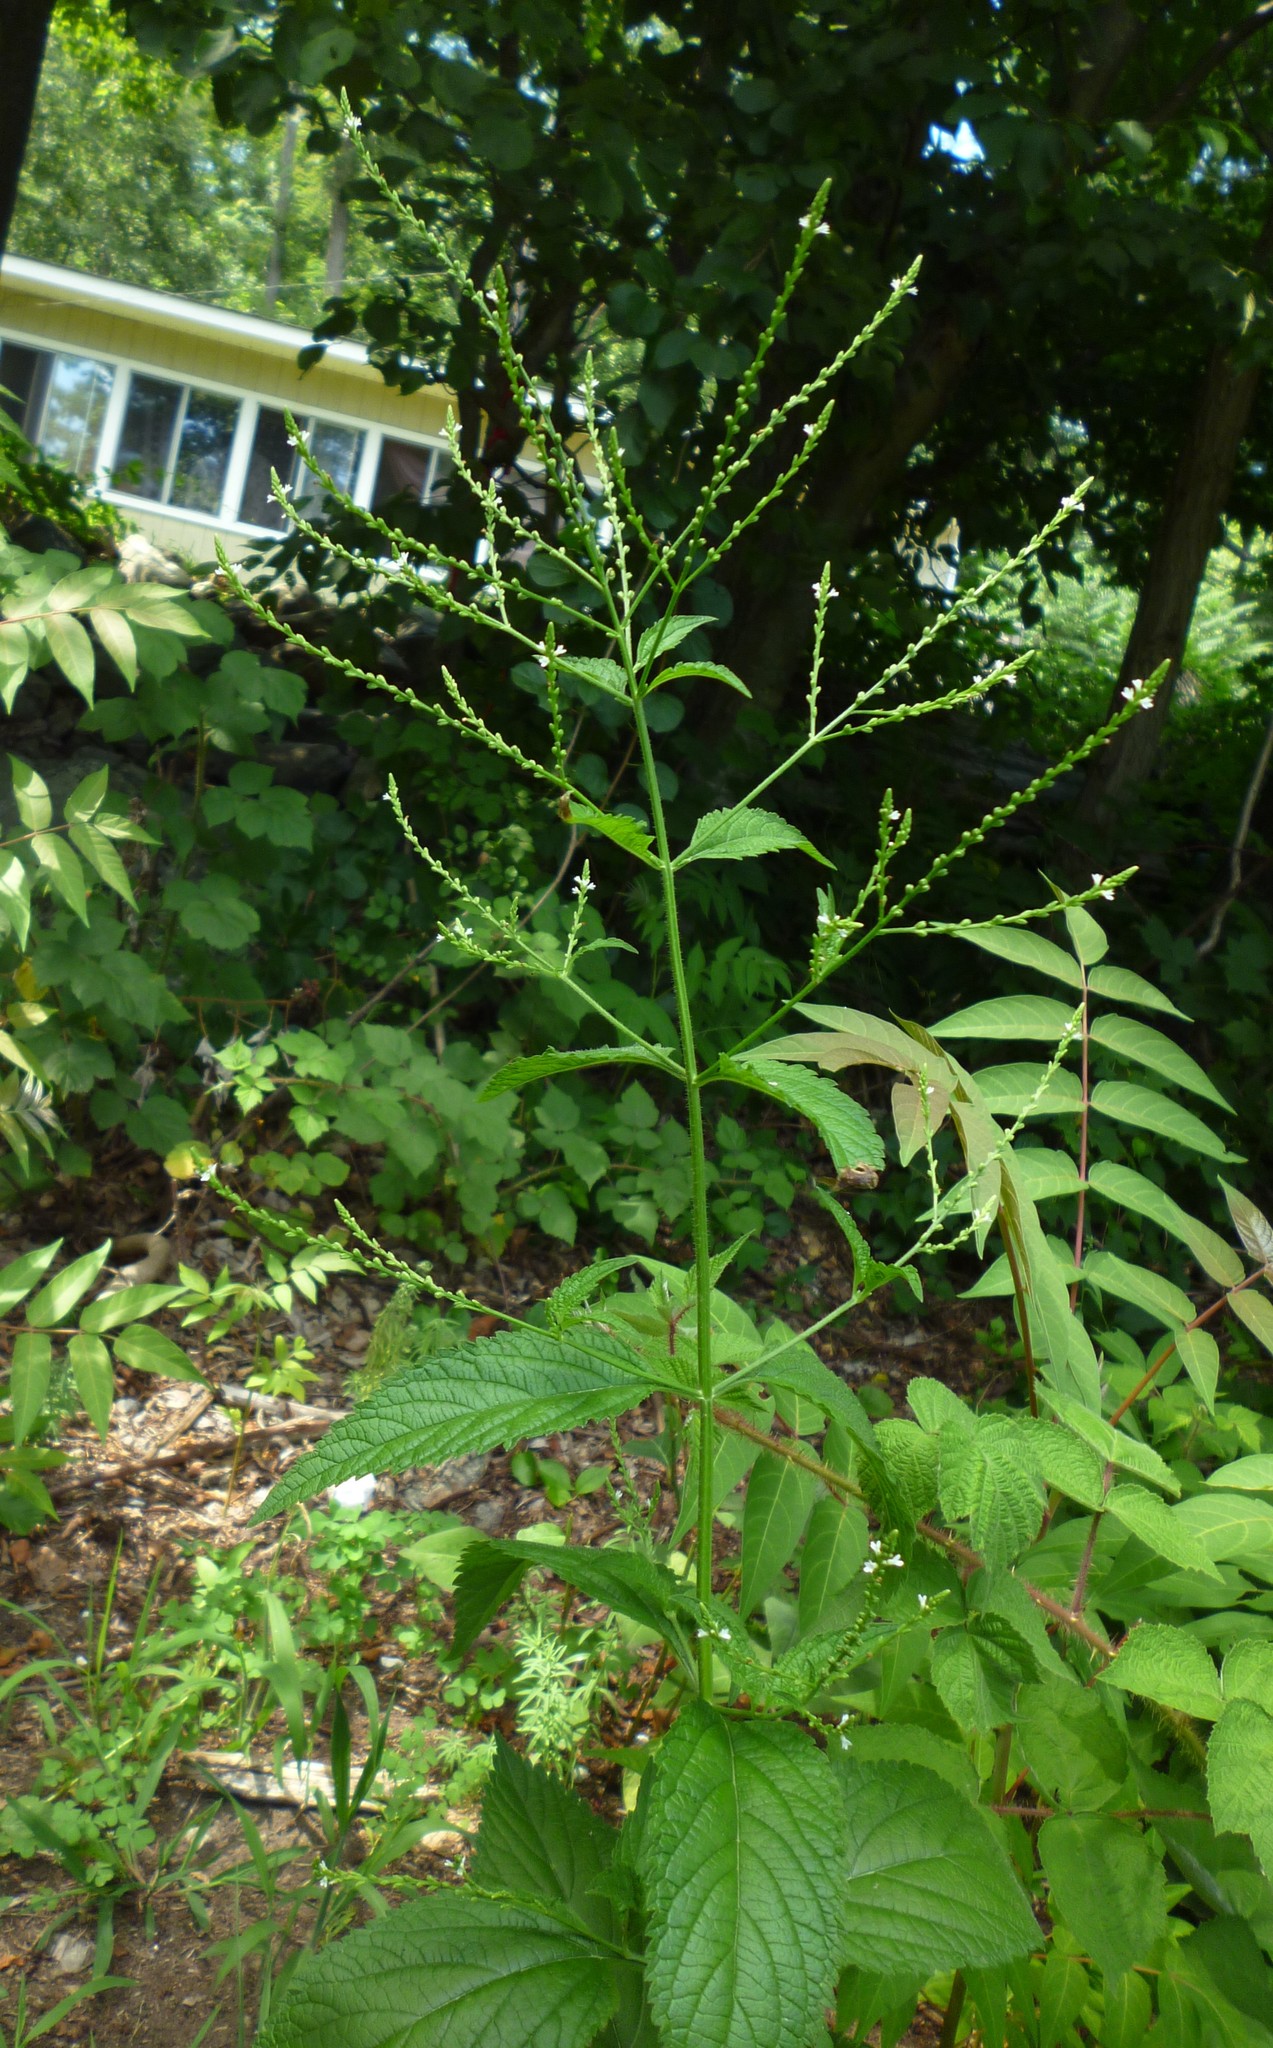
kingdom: Plantae
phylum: Tracheophyta
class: Magnoliopsida
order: Lamiales
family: Verbenaceae
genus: Verbena
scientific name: Verbena urticifolia
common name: Nettle-leaved vervain
